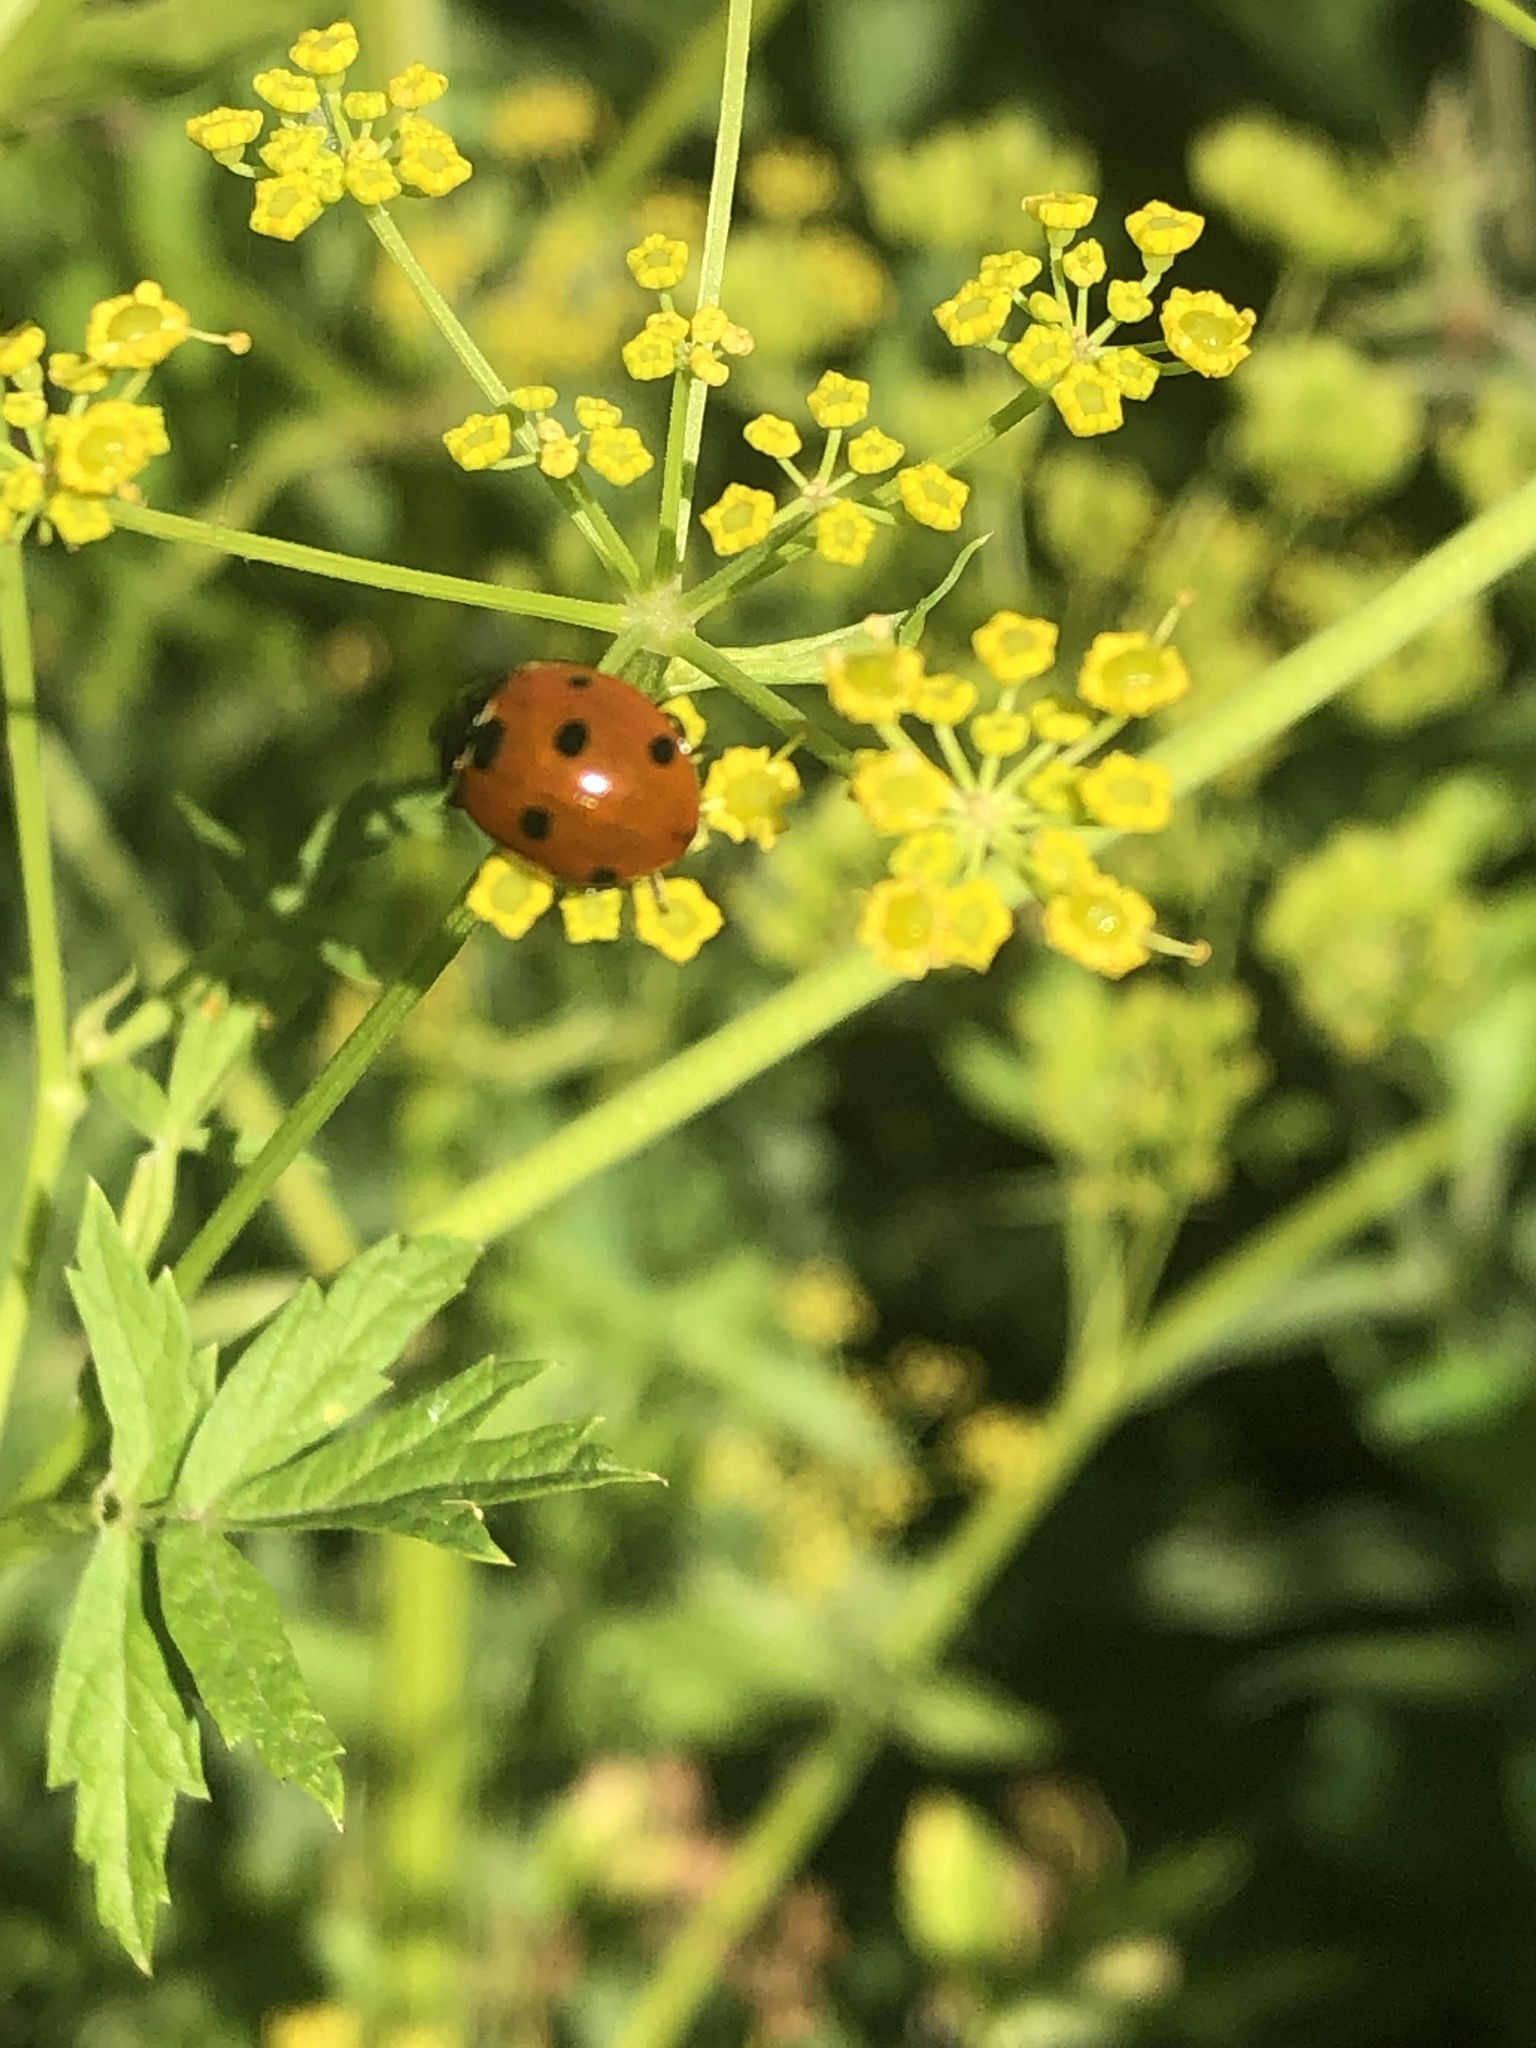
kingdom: Animalia
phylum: Arthropoda
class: Insecta
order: Coleoptera
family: Coccinellidae
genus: Coccinella
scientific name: Coccinella septempunctata
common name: Sevenspotted lady beetle
